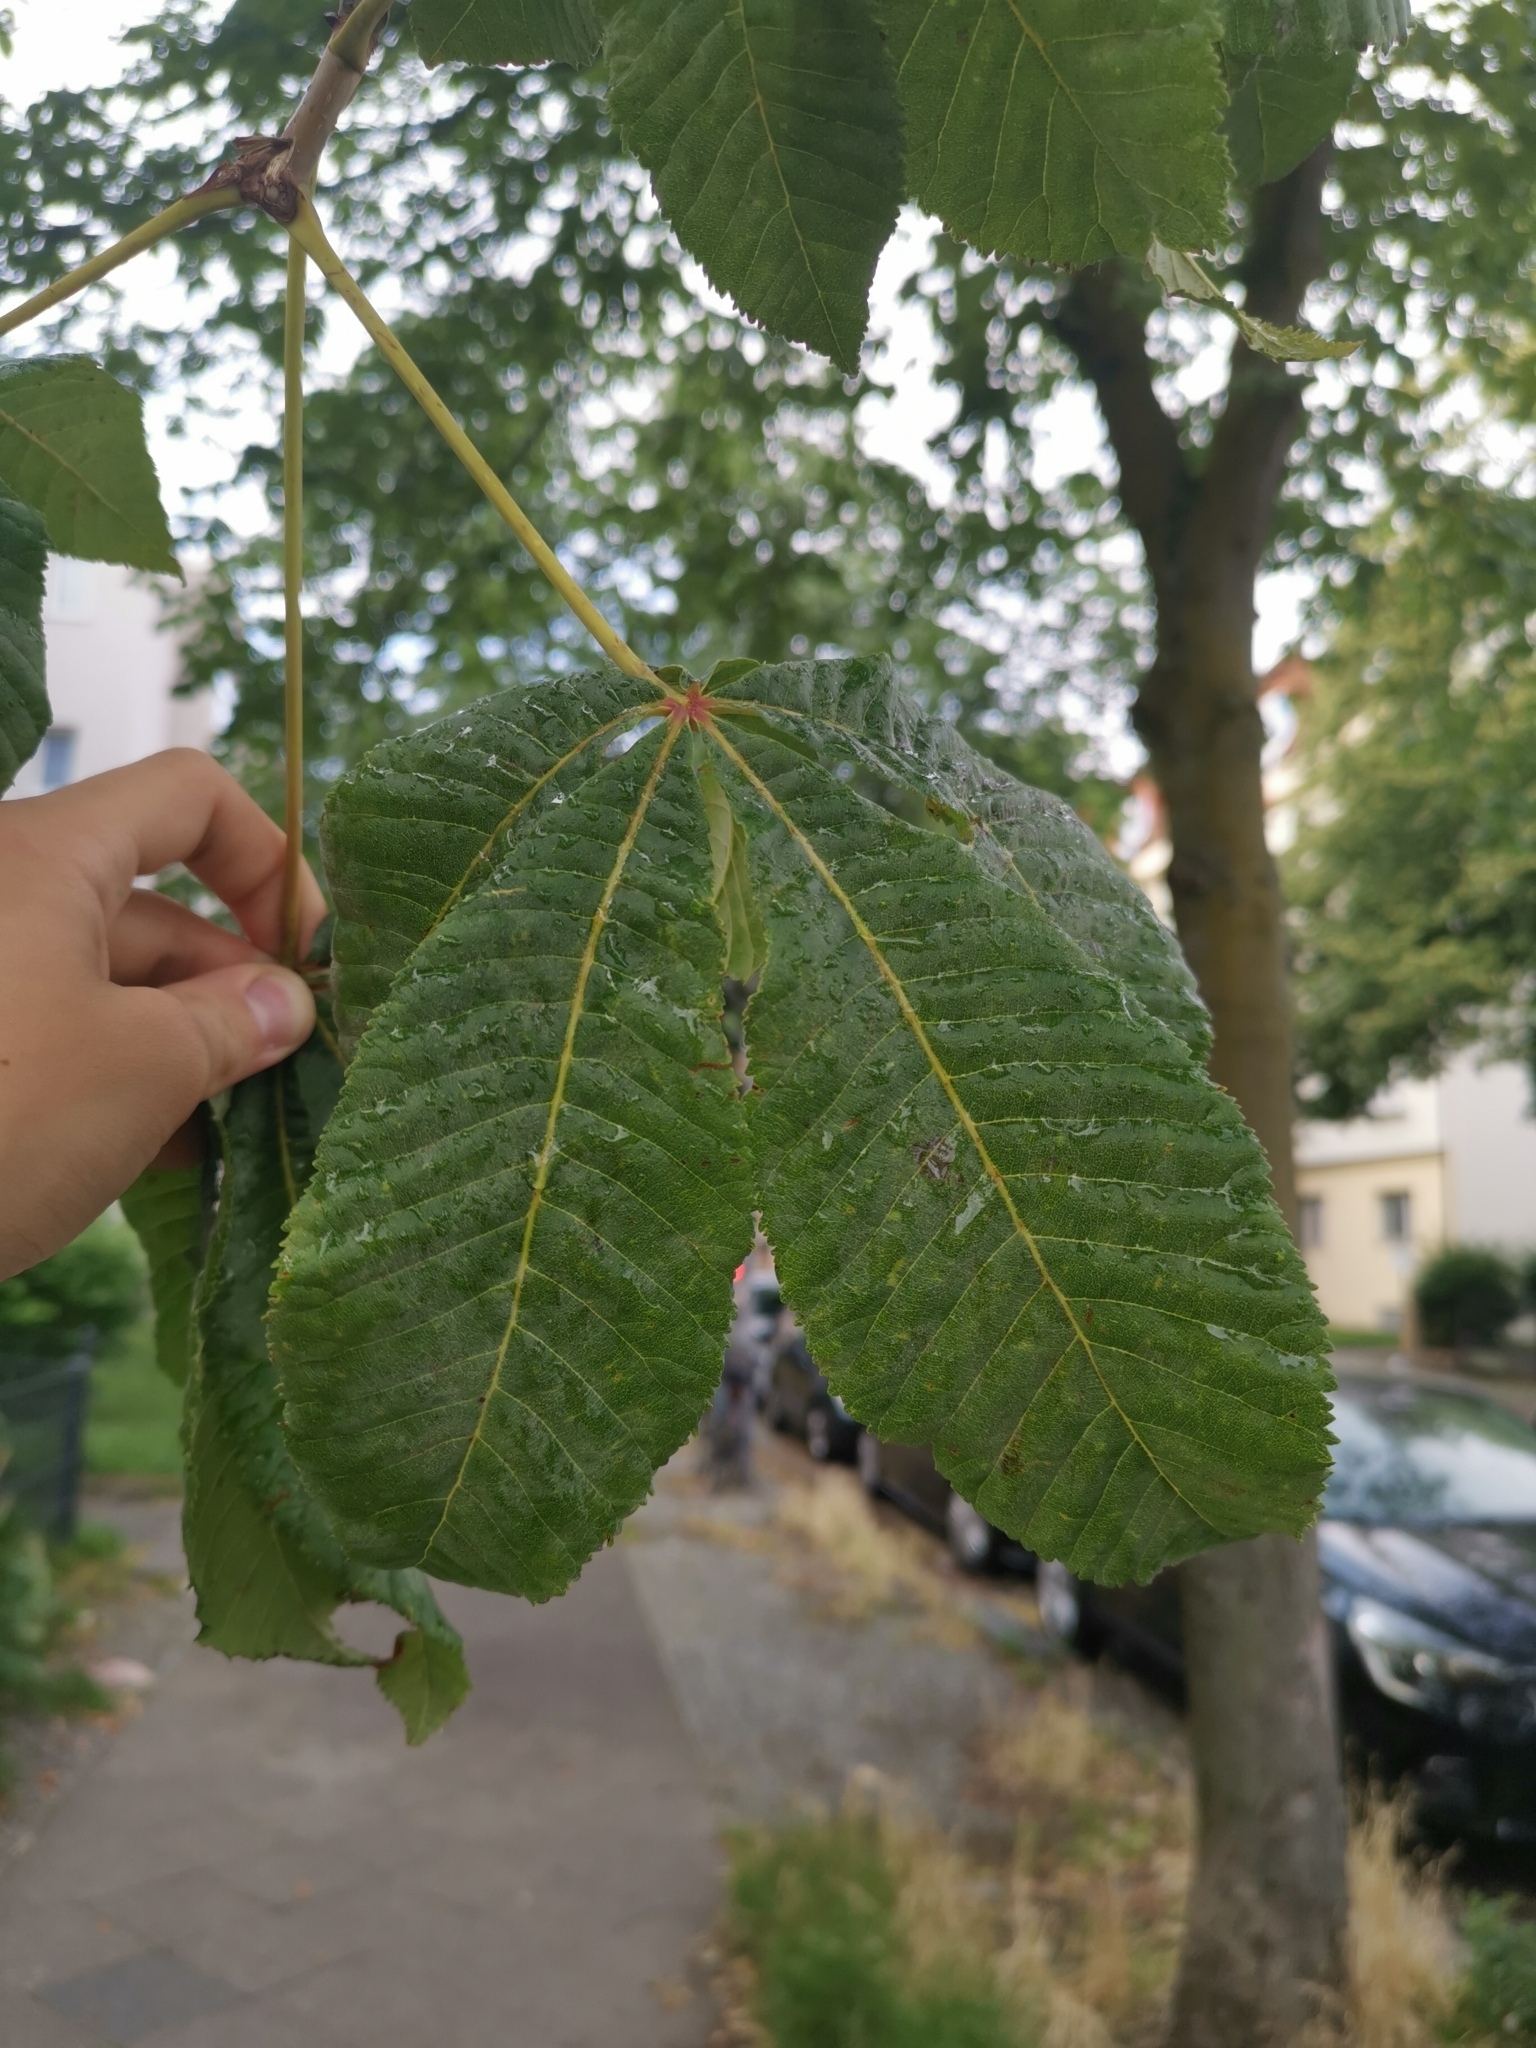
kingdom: Fungi
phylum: Ascomycota
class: Leotiomycetes
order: Helotiales
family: Erysiphaceae
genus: Erysiphe
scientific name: Erysiphe flexuosa
